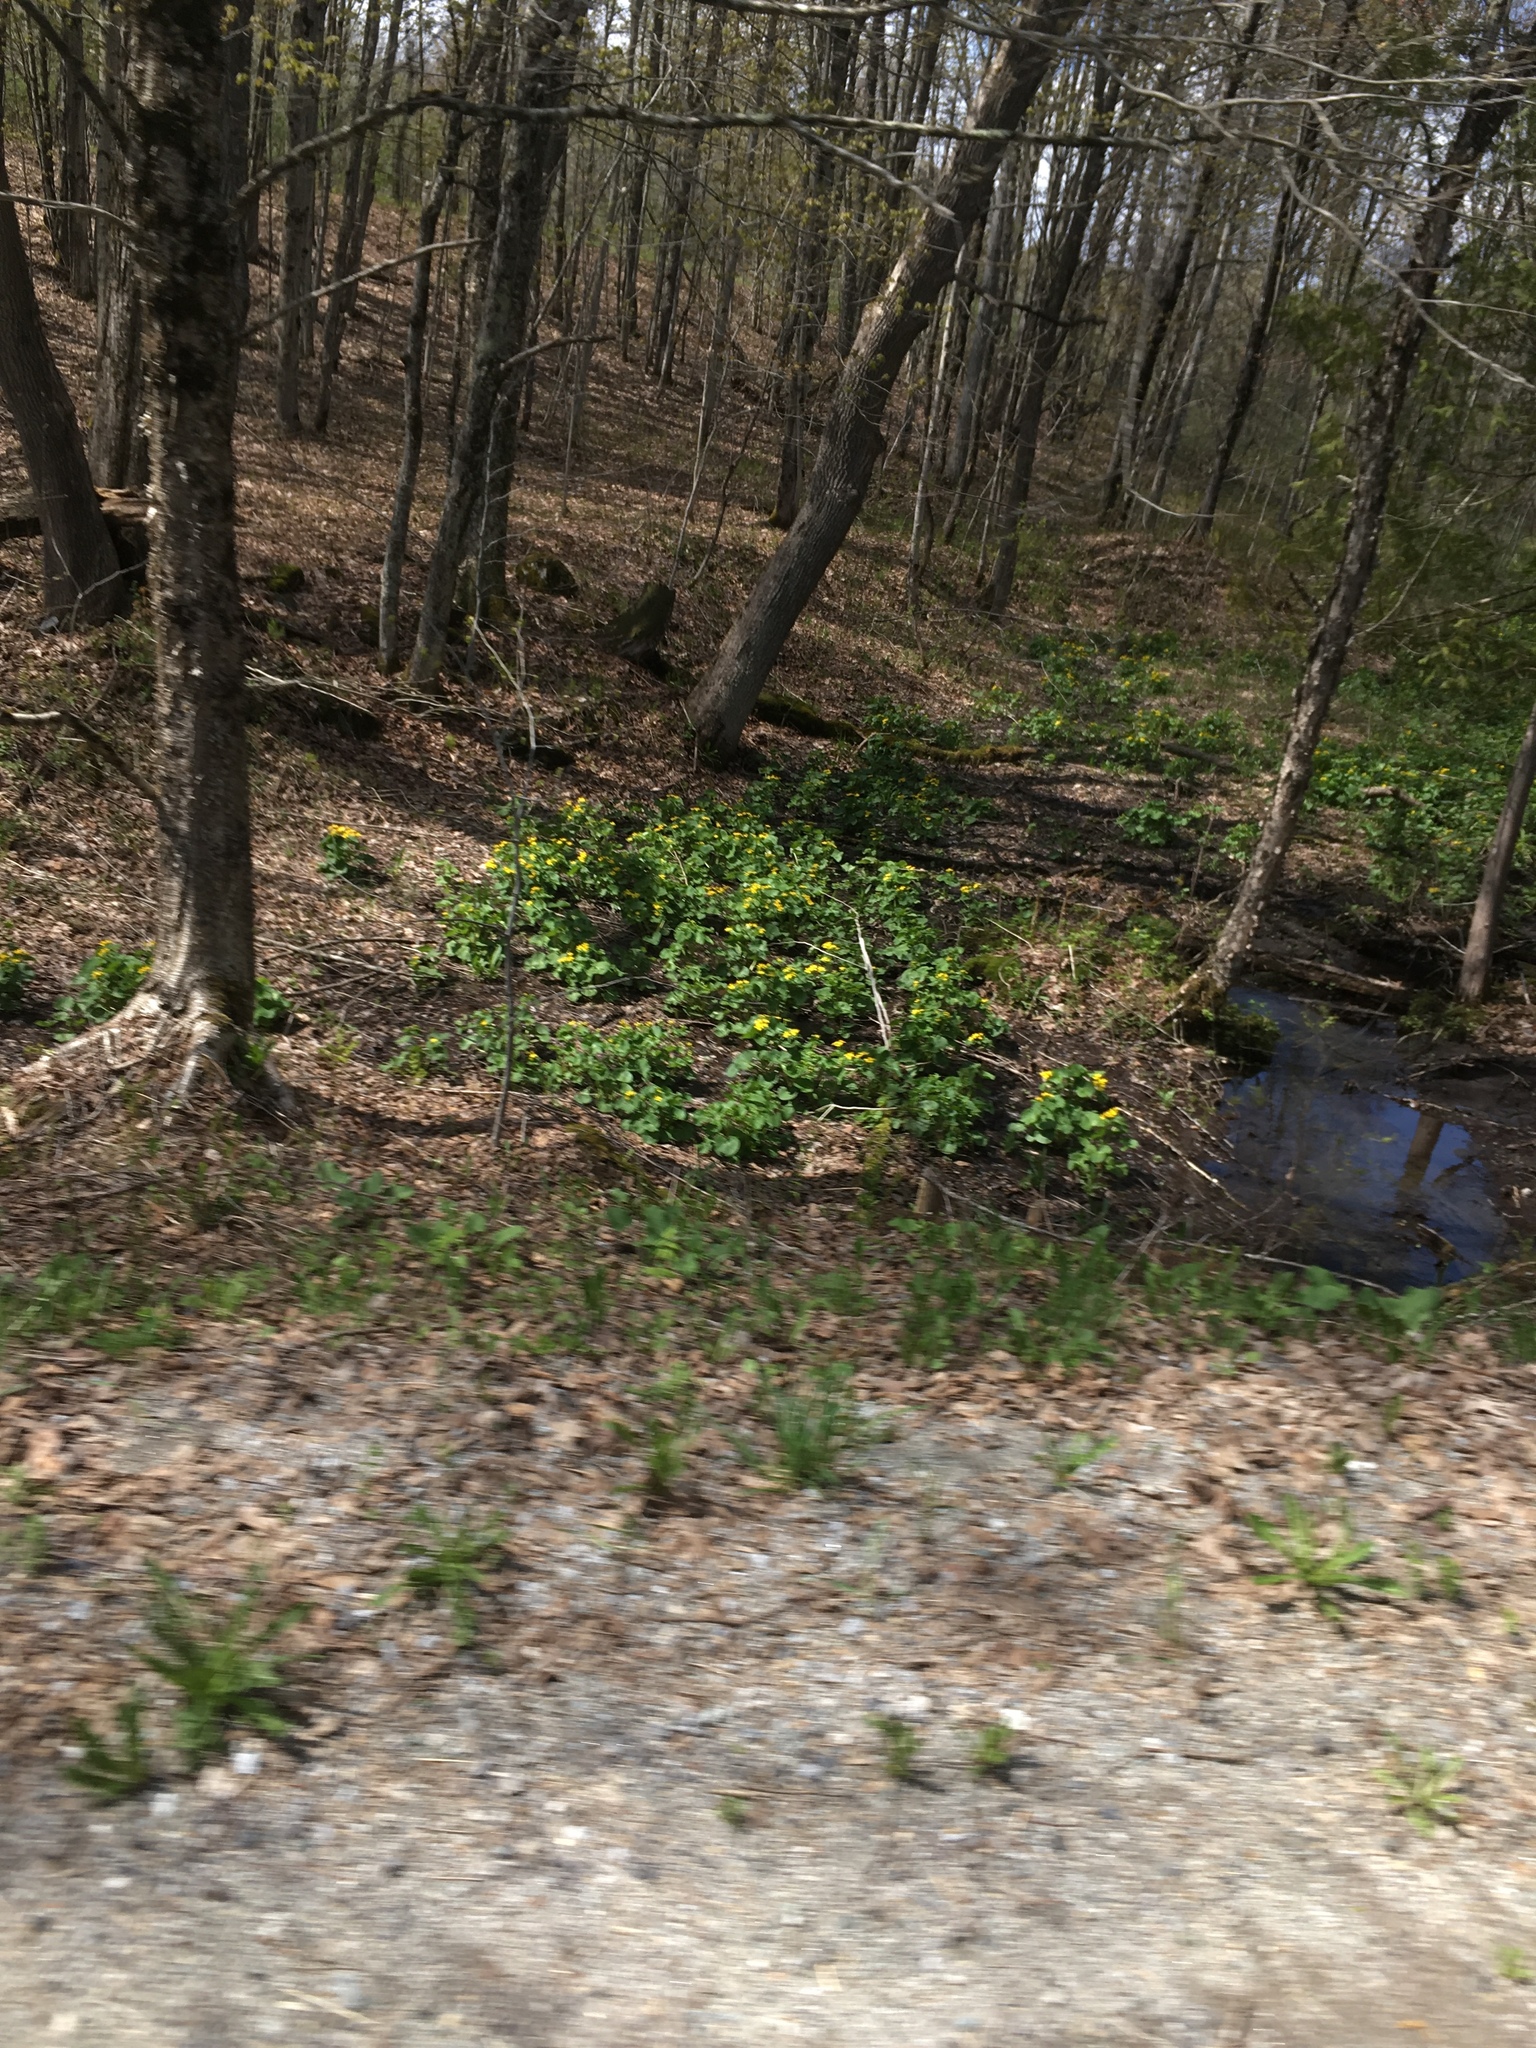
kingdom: Plantae
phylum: Tracheophyta
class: Magnoliopsida
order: Ranunculales
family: Ranunculaceae
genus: Caltha
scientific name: Caltha palustris
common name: Marsh marigold
